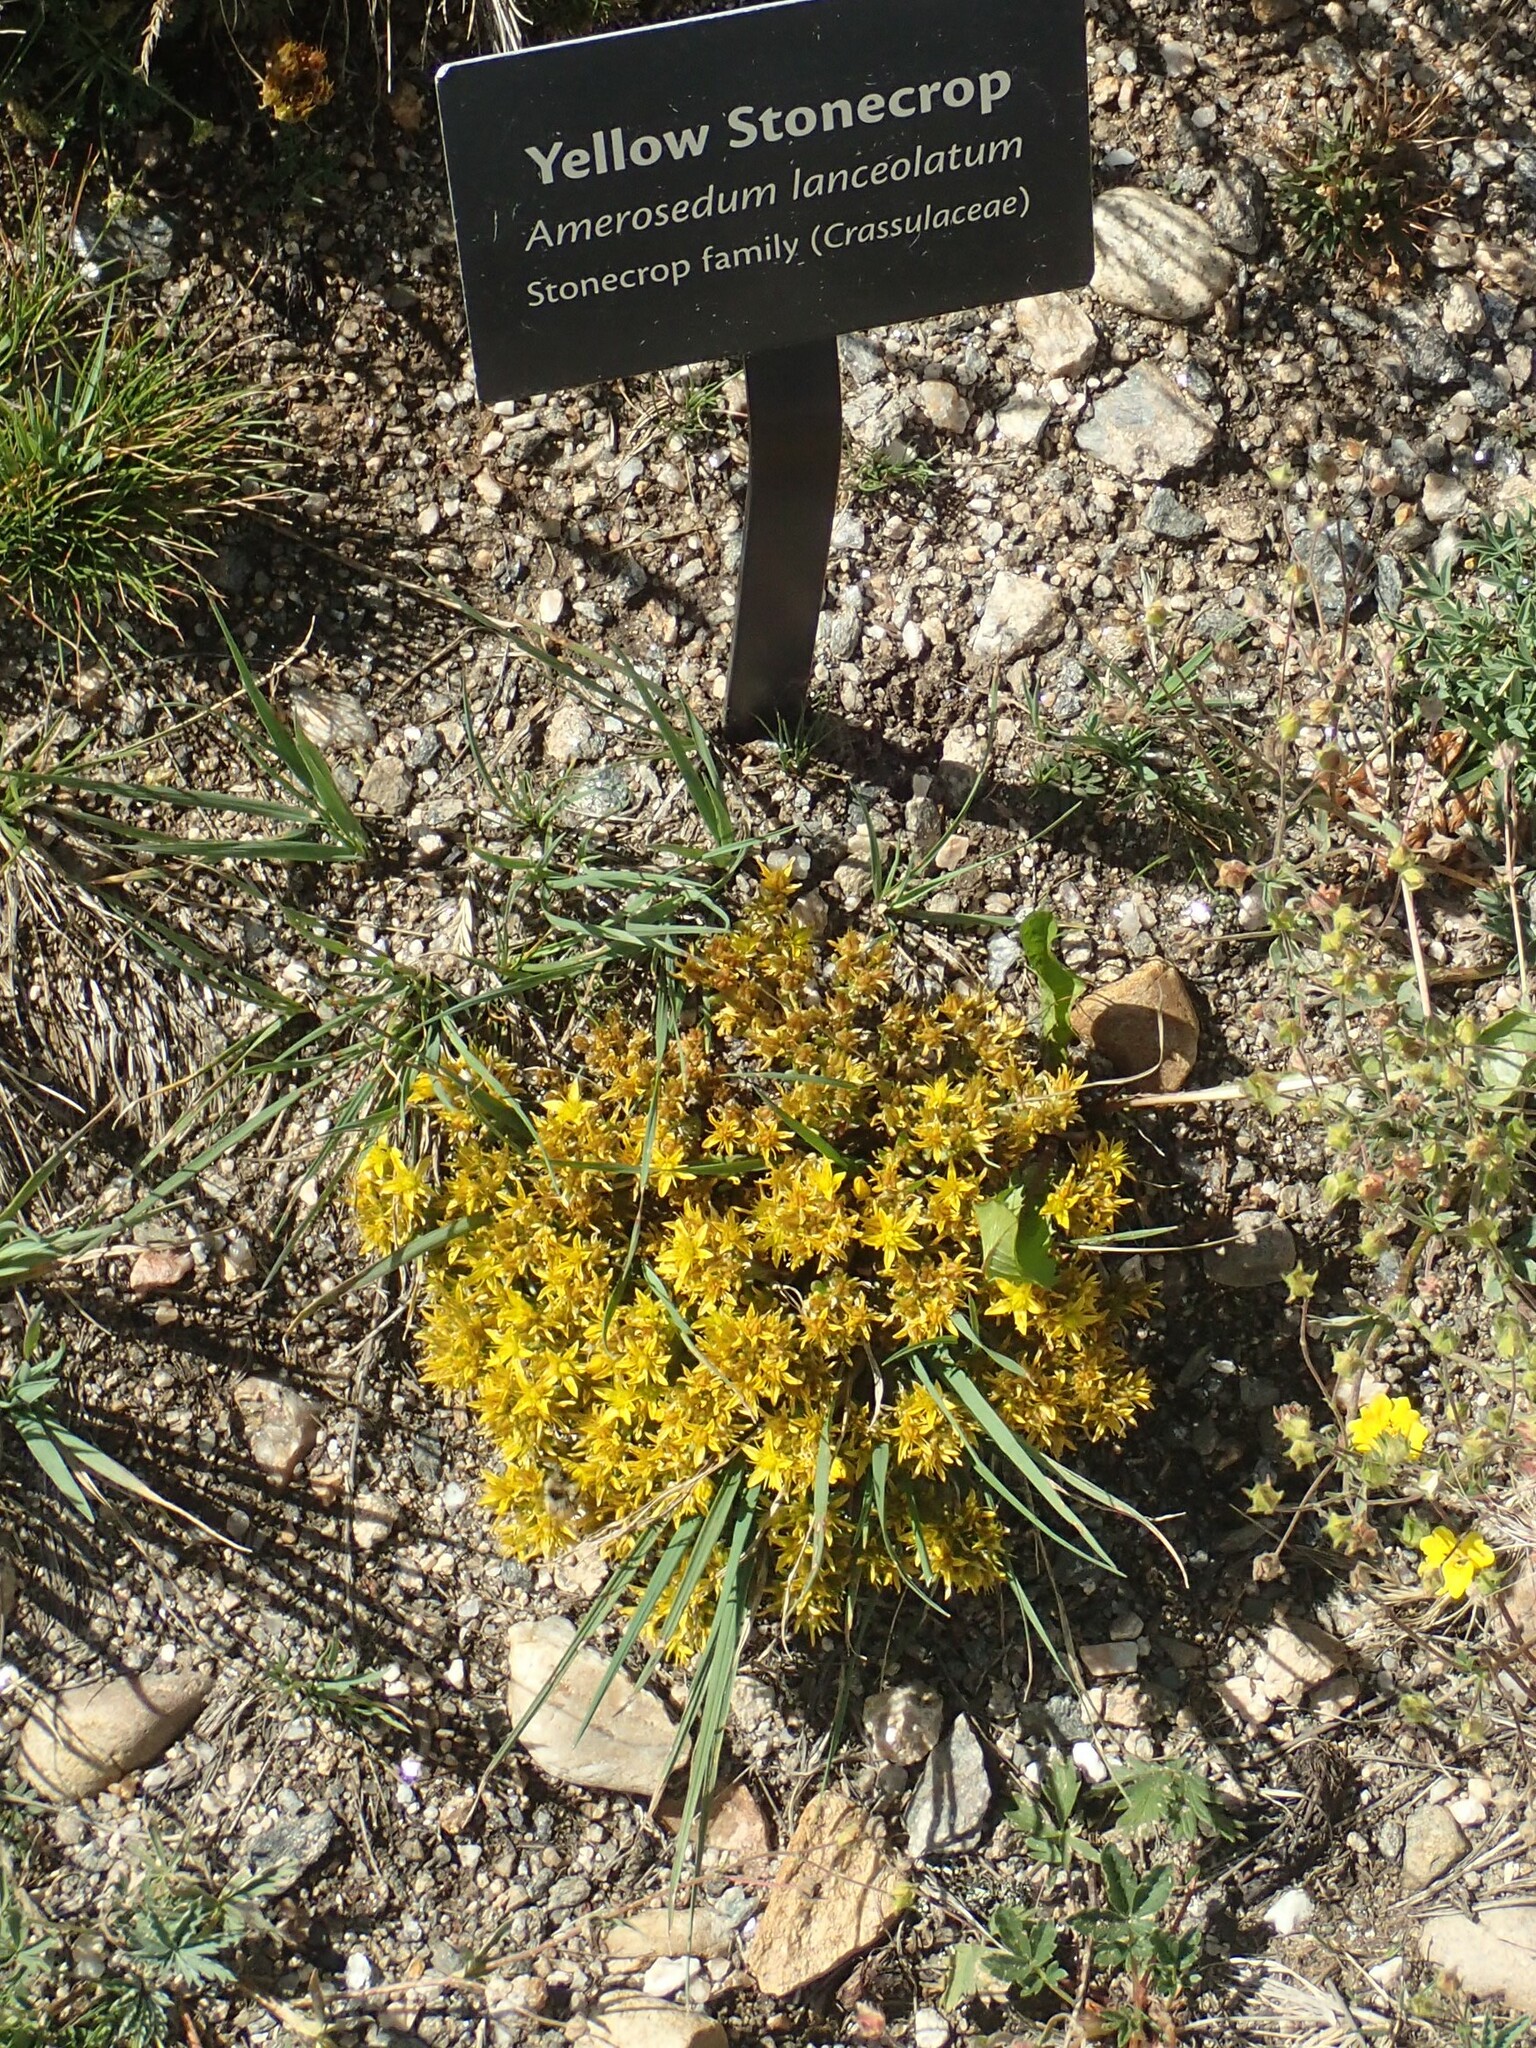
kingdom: Plantae
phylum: Tracheophyta
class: Magnoliopsida
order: Saxifragales
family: Crassulaceae
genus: Sedum
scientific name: Sedum lanceolatum
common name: Common stonecrop
